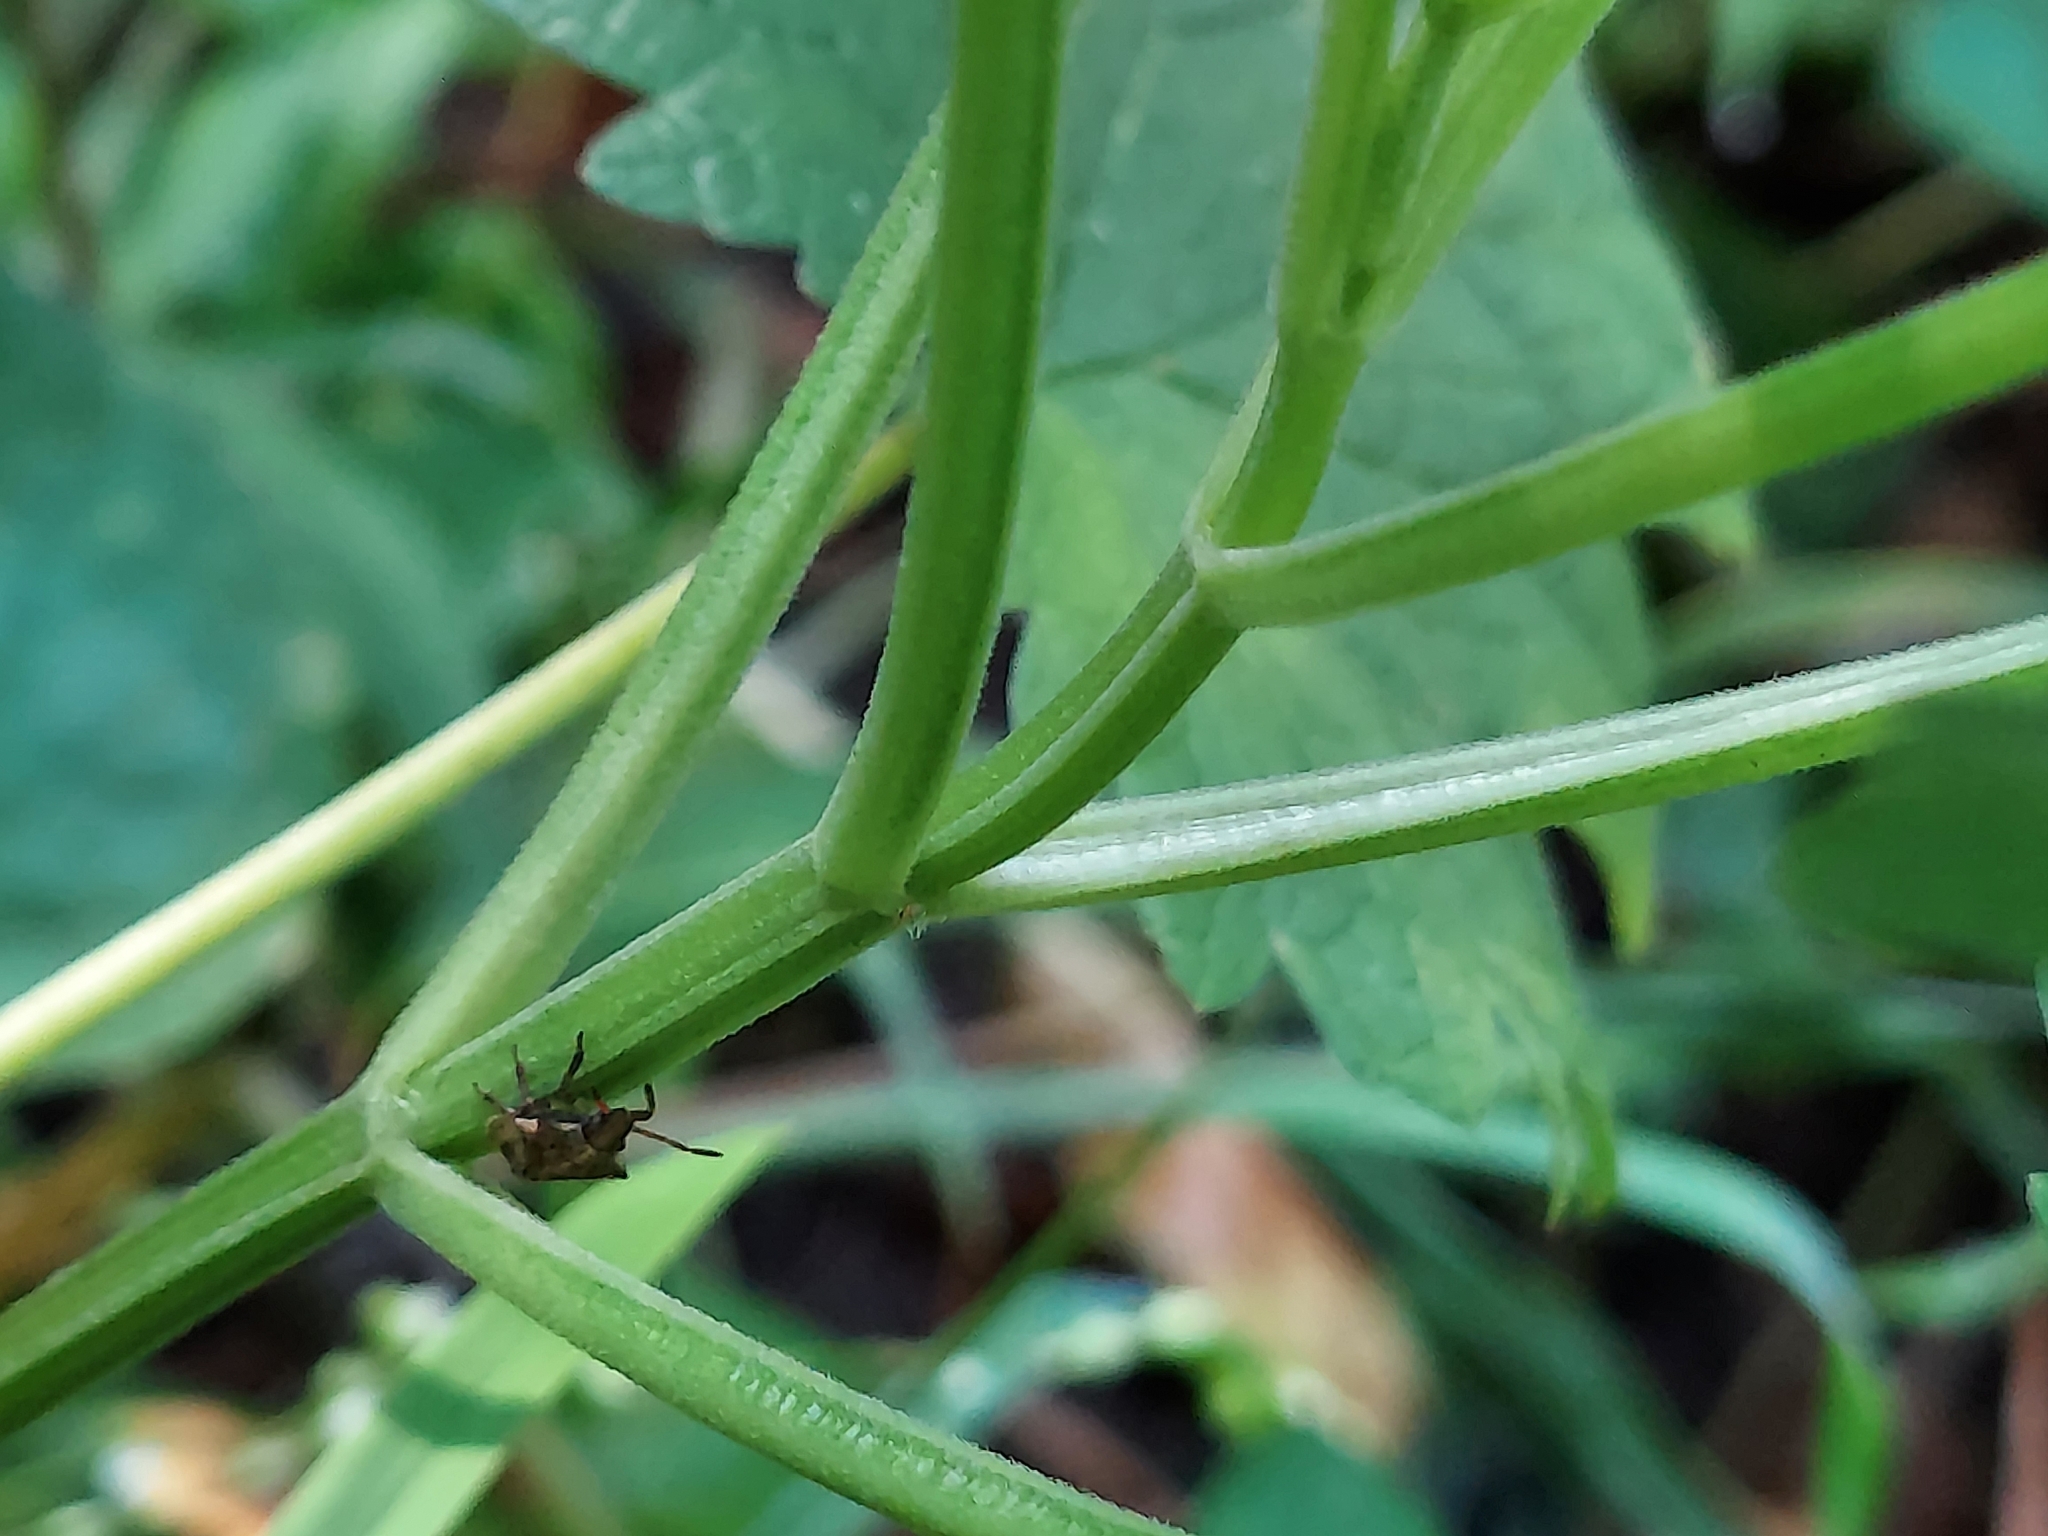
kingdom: Plantae
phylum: Tracheophyta
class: Magnoliopsida
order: Lamiales
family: Lamiaceae
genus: Leonurus
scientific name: Leonurus cardiaca
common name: Motherwort
